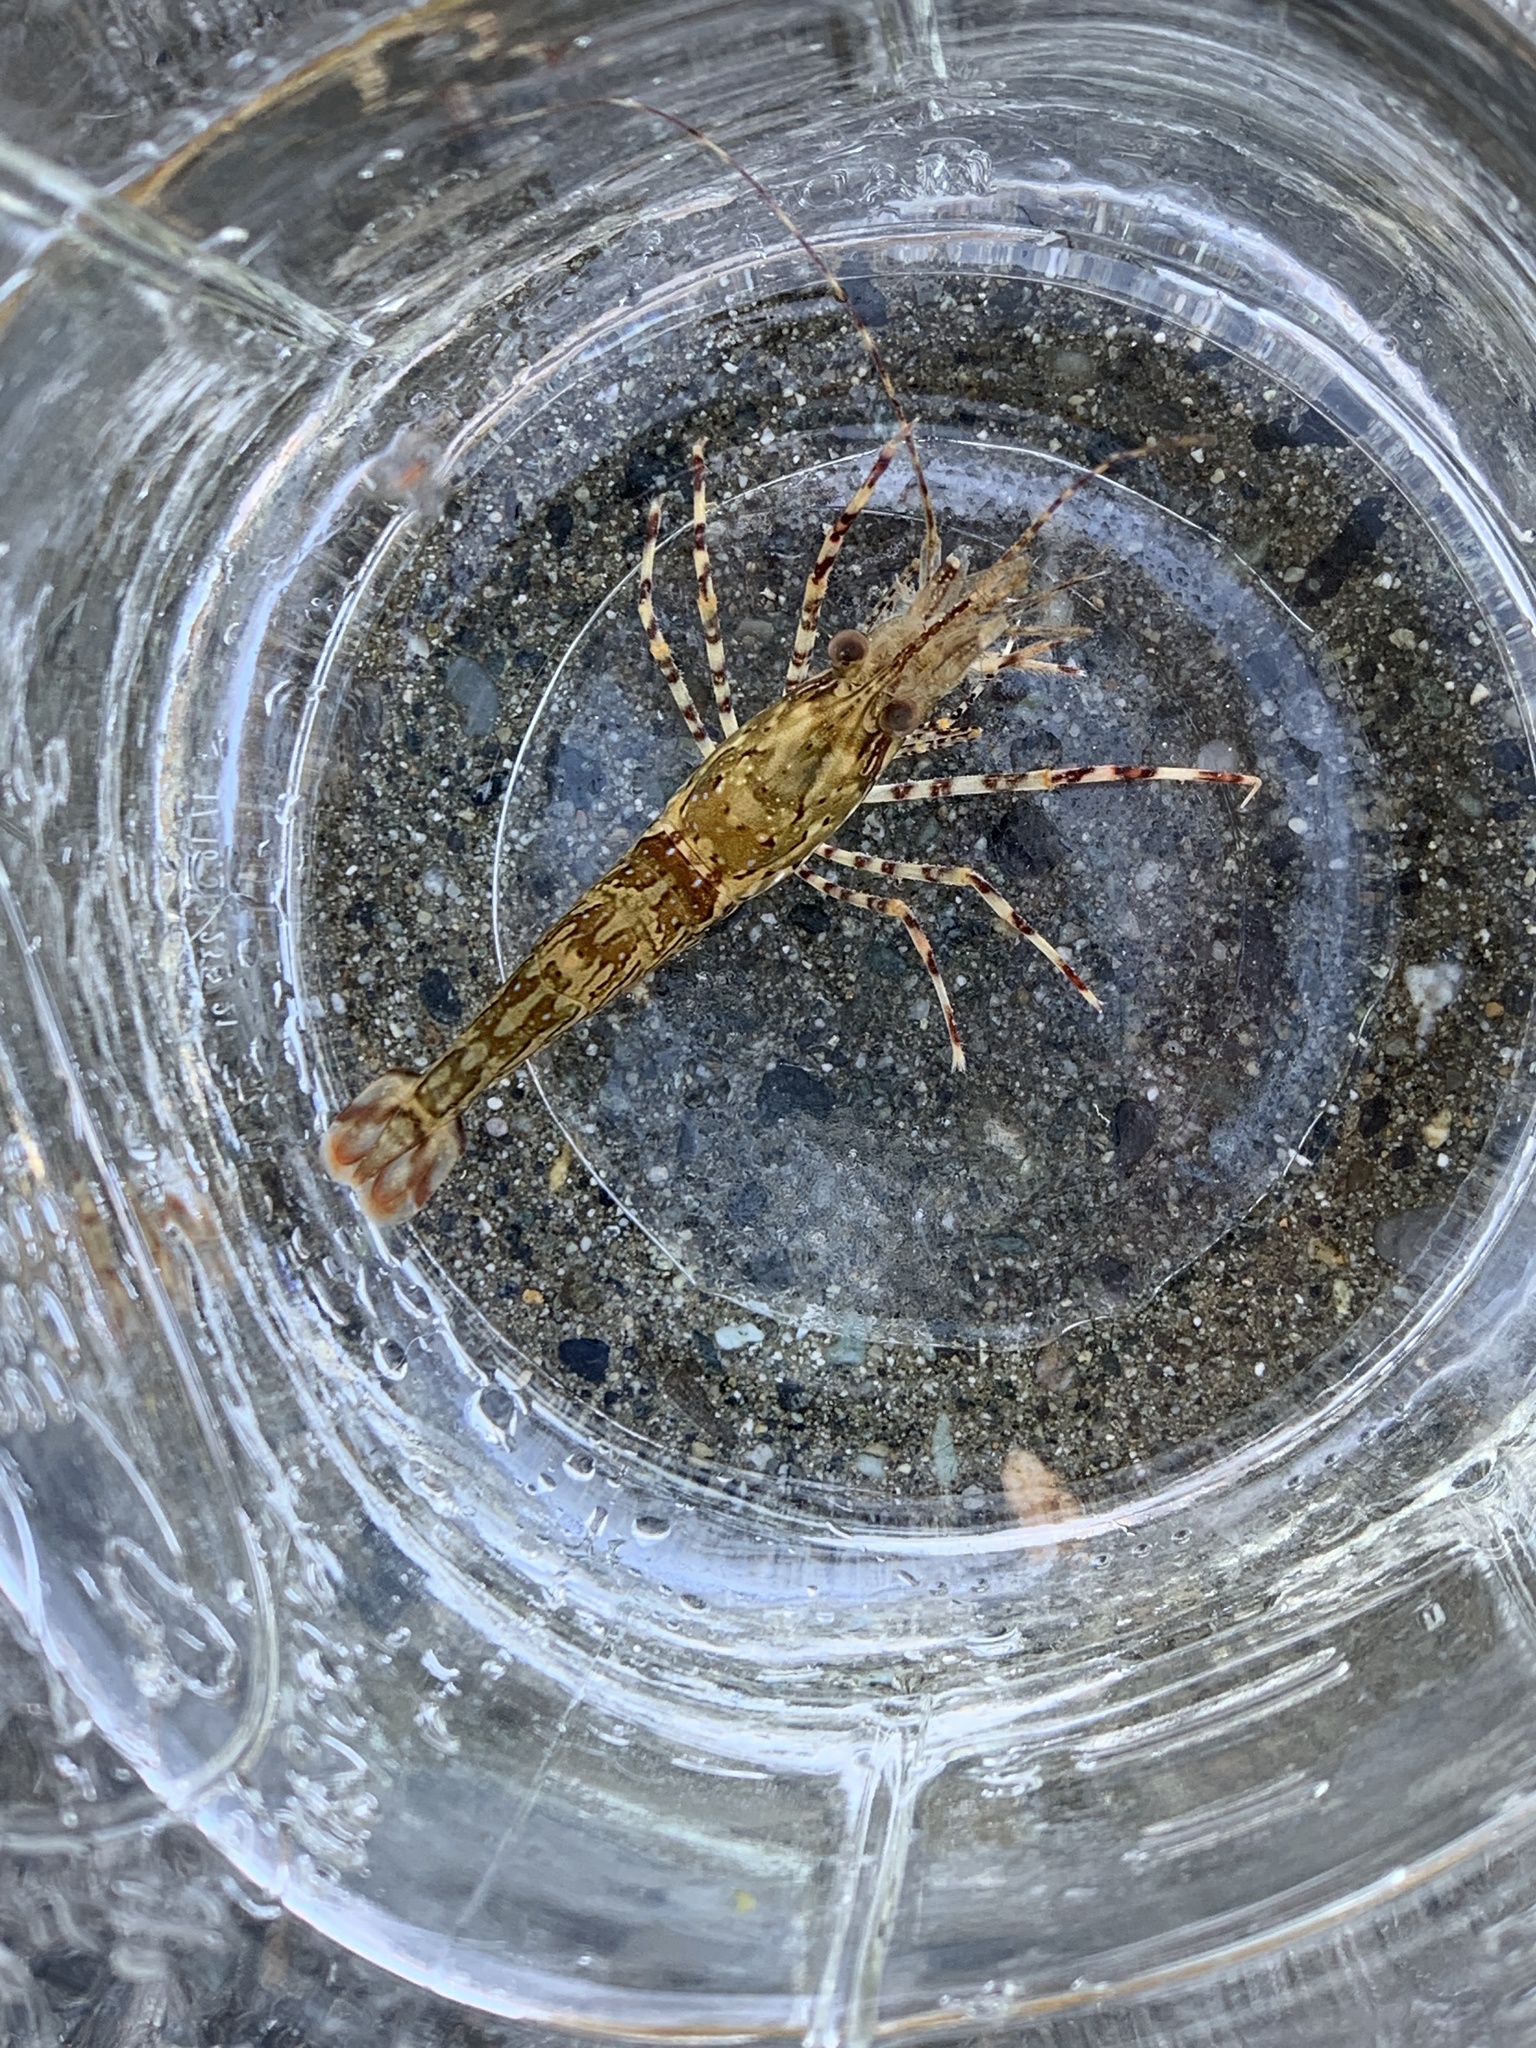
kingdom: Animalia
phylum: Arthropoda
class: Malacostraca
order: Decapoda
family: Pandalidae
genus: Pandalus
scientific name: Pandalus danae
